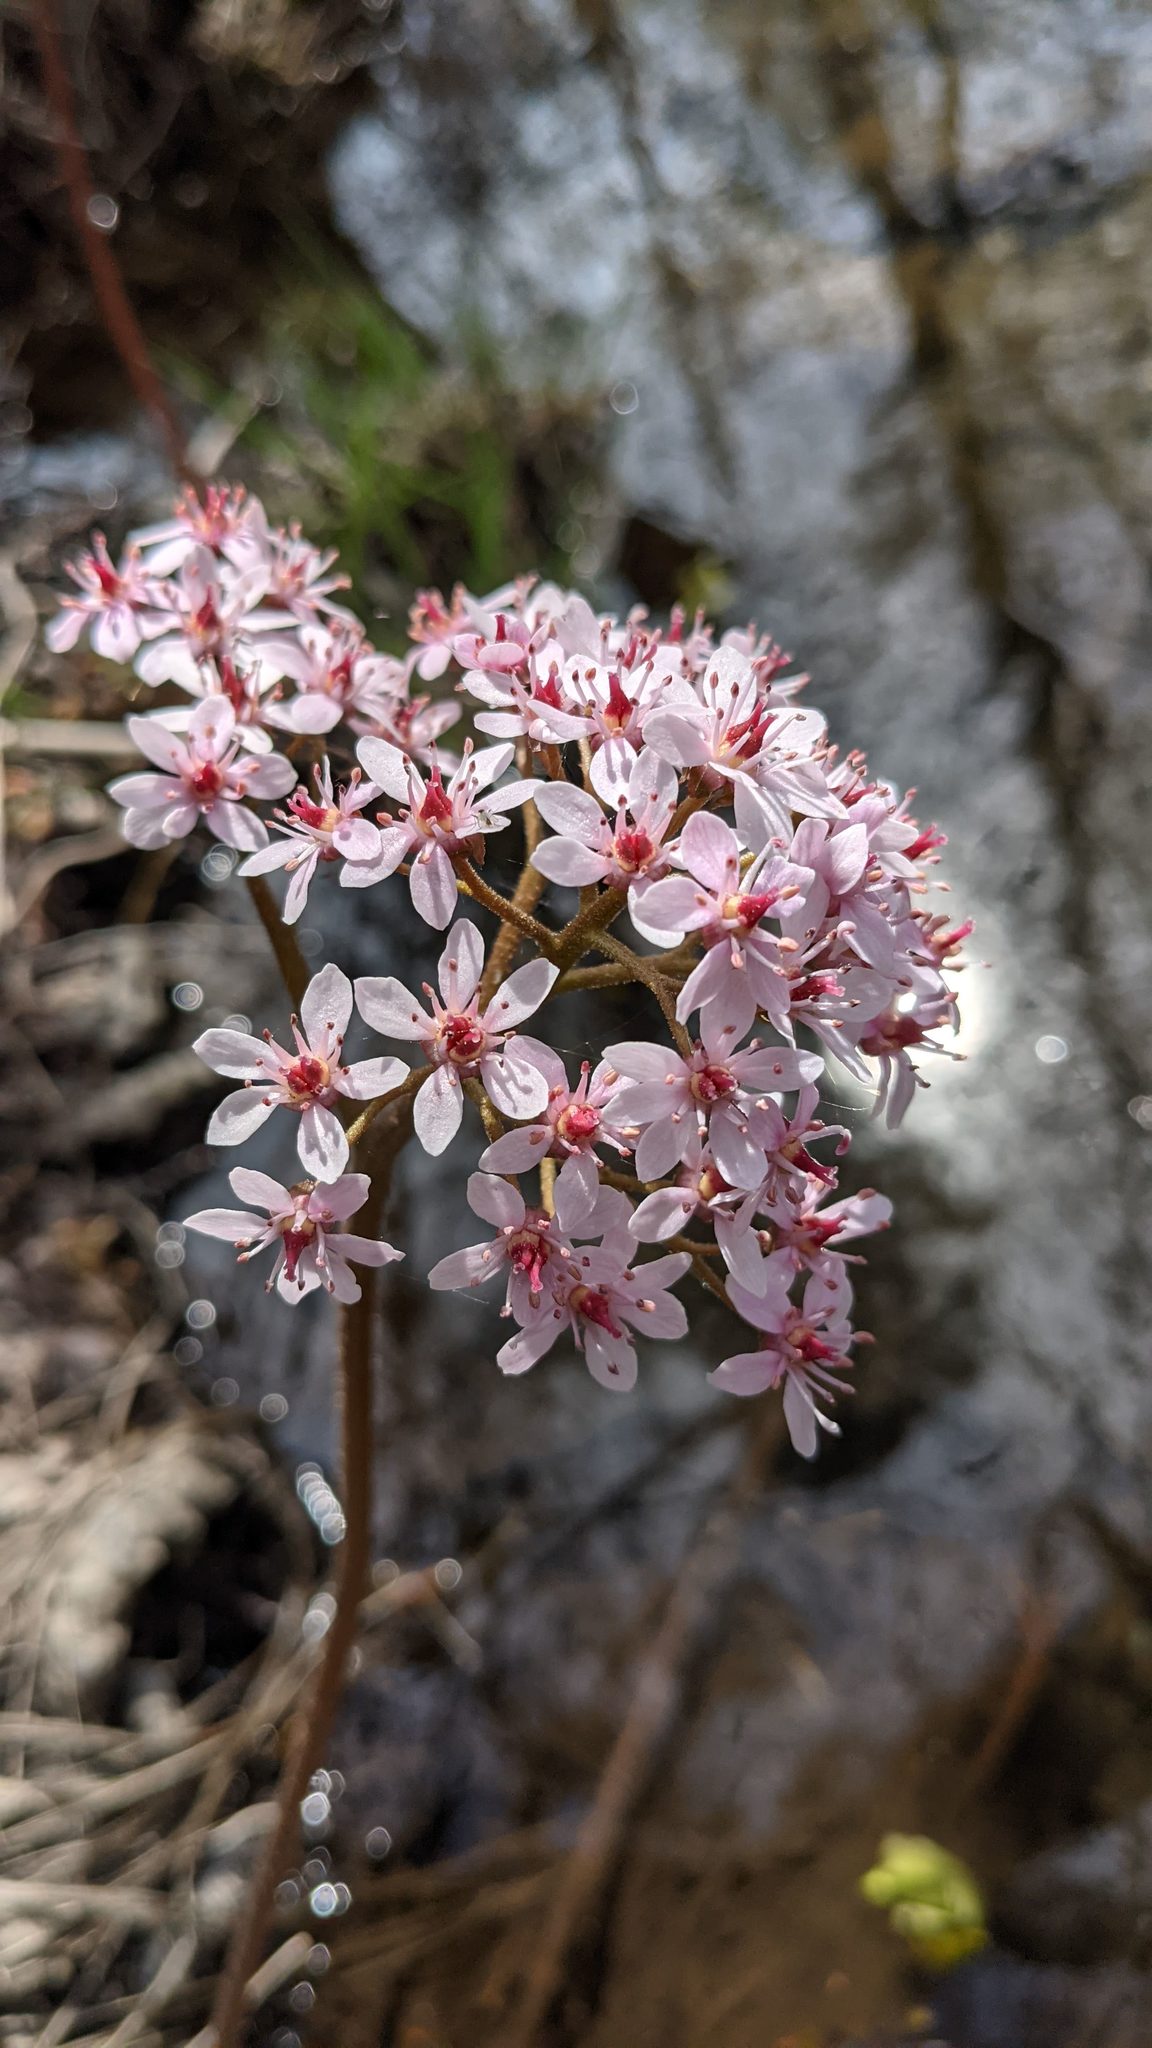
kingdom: Plantae
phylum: Tracheophyta
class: Magnoliopsida
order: Saxifragales
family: Saxifragaceae
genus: Darmera
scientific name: Darmera peltata
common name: Indian-rhubarb
